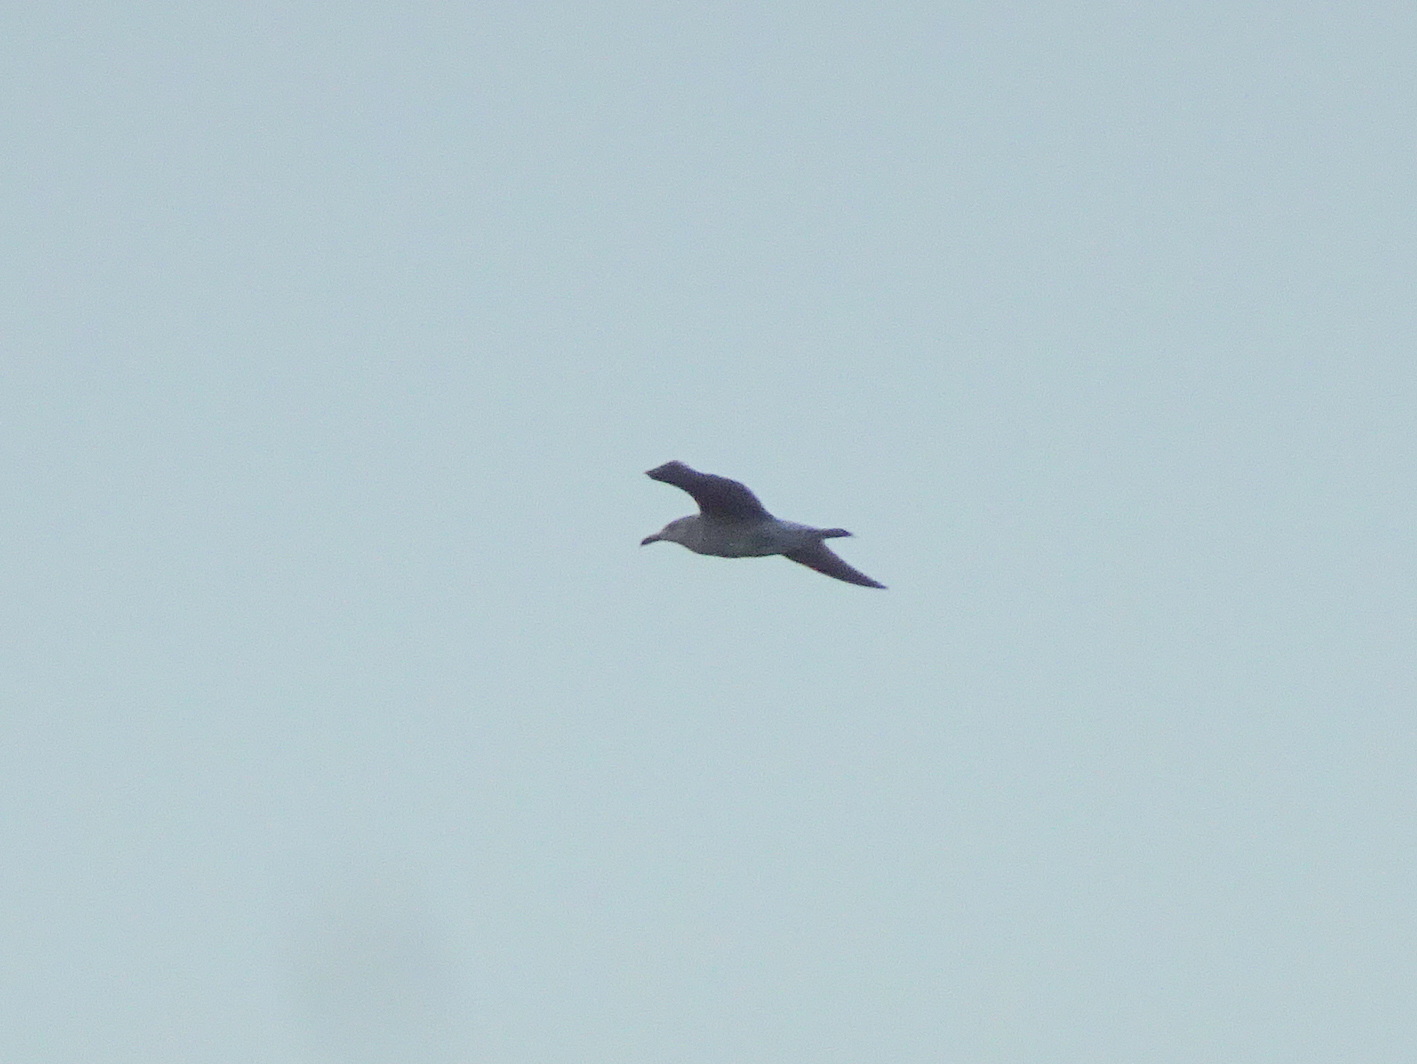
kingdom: Animalia
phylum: Chordata
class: Aves
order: Charadriiformes
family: Laridae
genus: Larus
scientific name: Larus michahellis
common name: Yellow-legged gull
